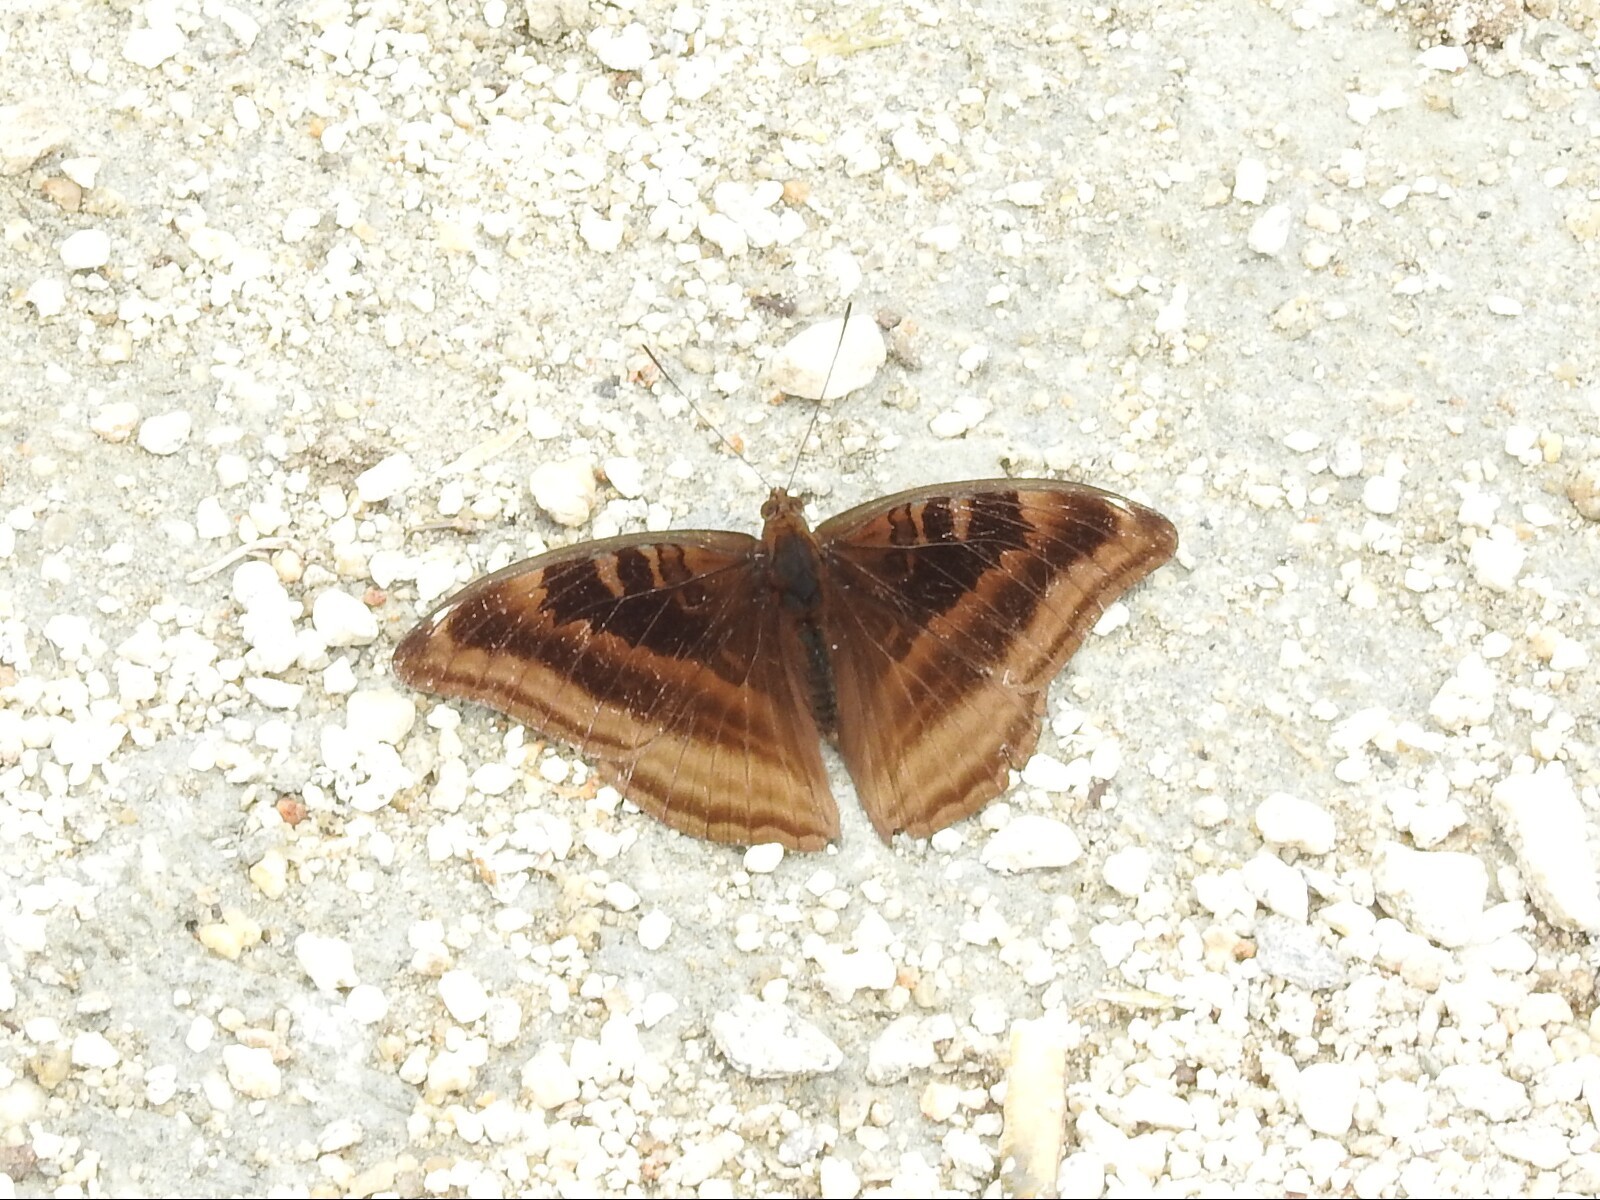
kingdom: Animalia
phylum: Arthropoda
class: Insecta
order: Lepidoptera
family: Nymphalidae
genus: Limenitis
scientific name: Limenitis Auzakia danava
